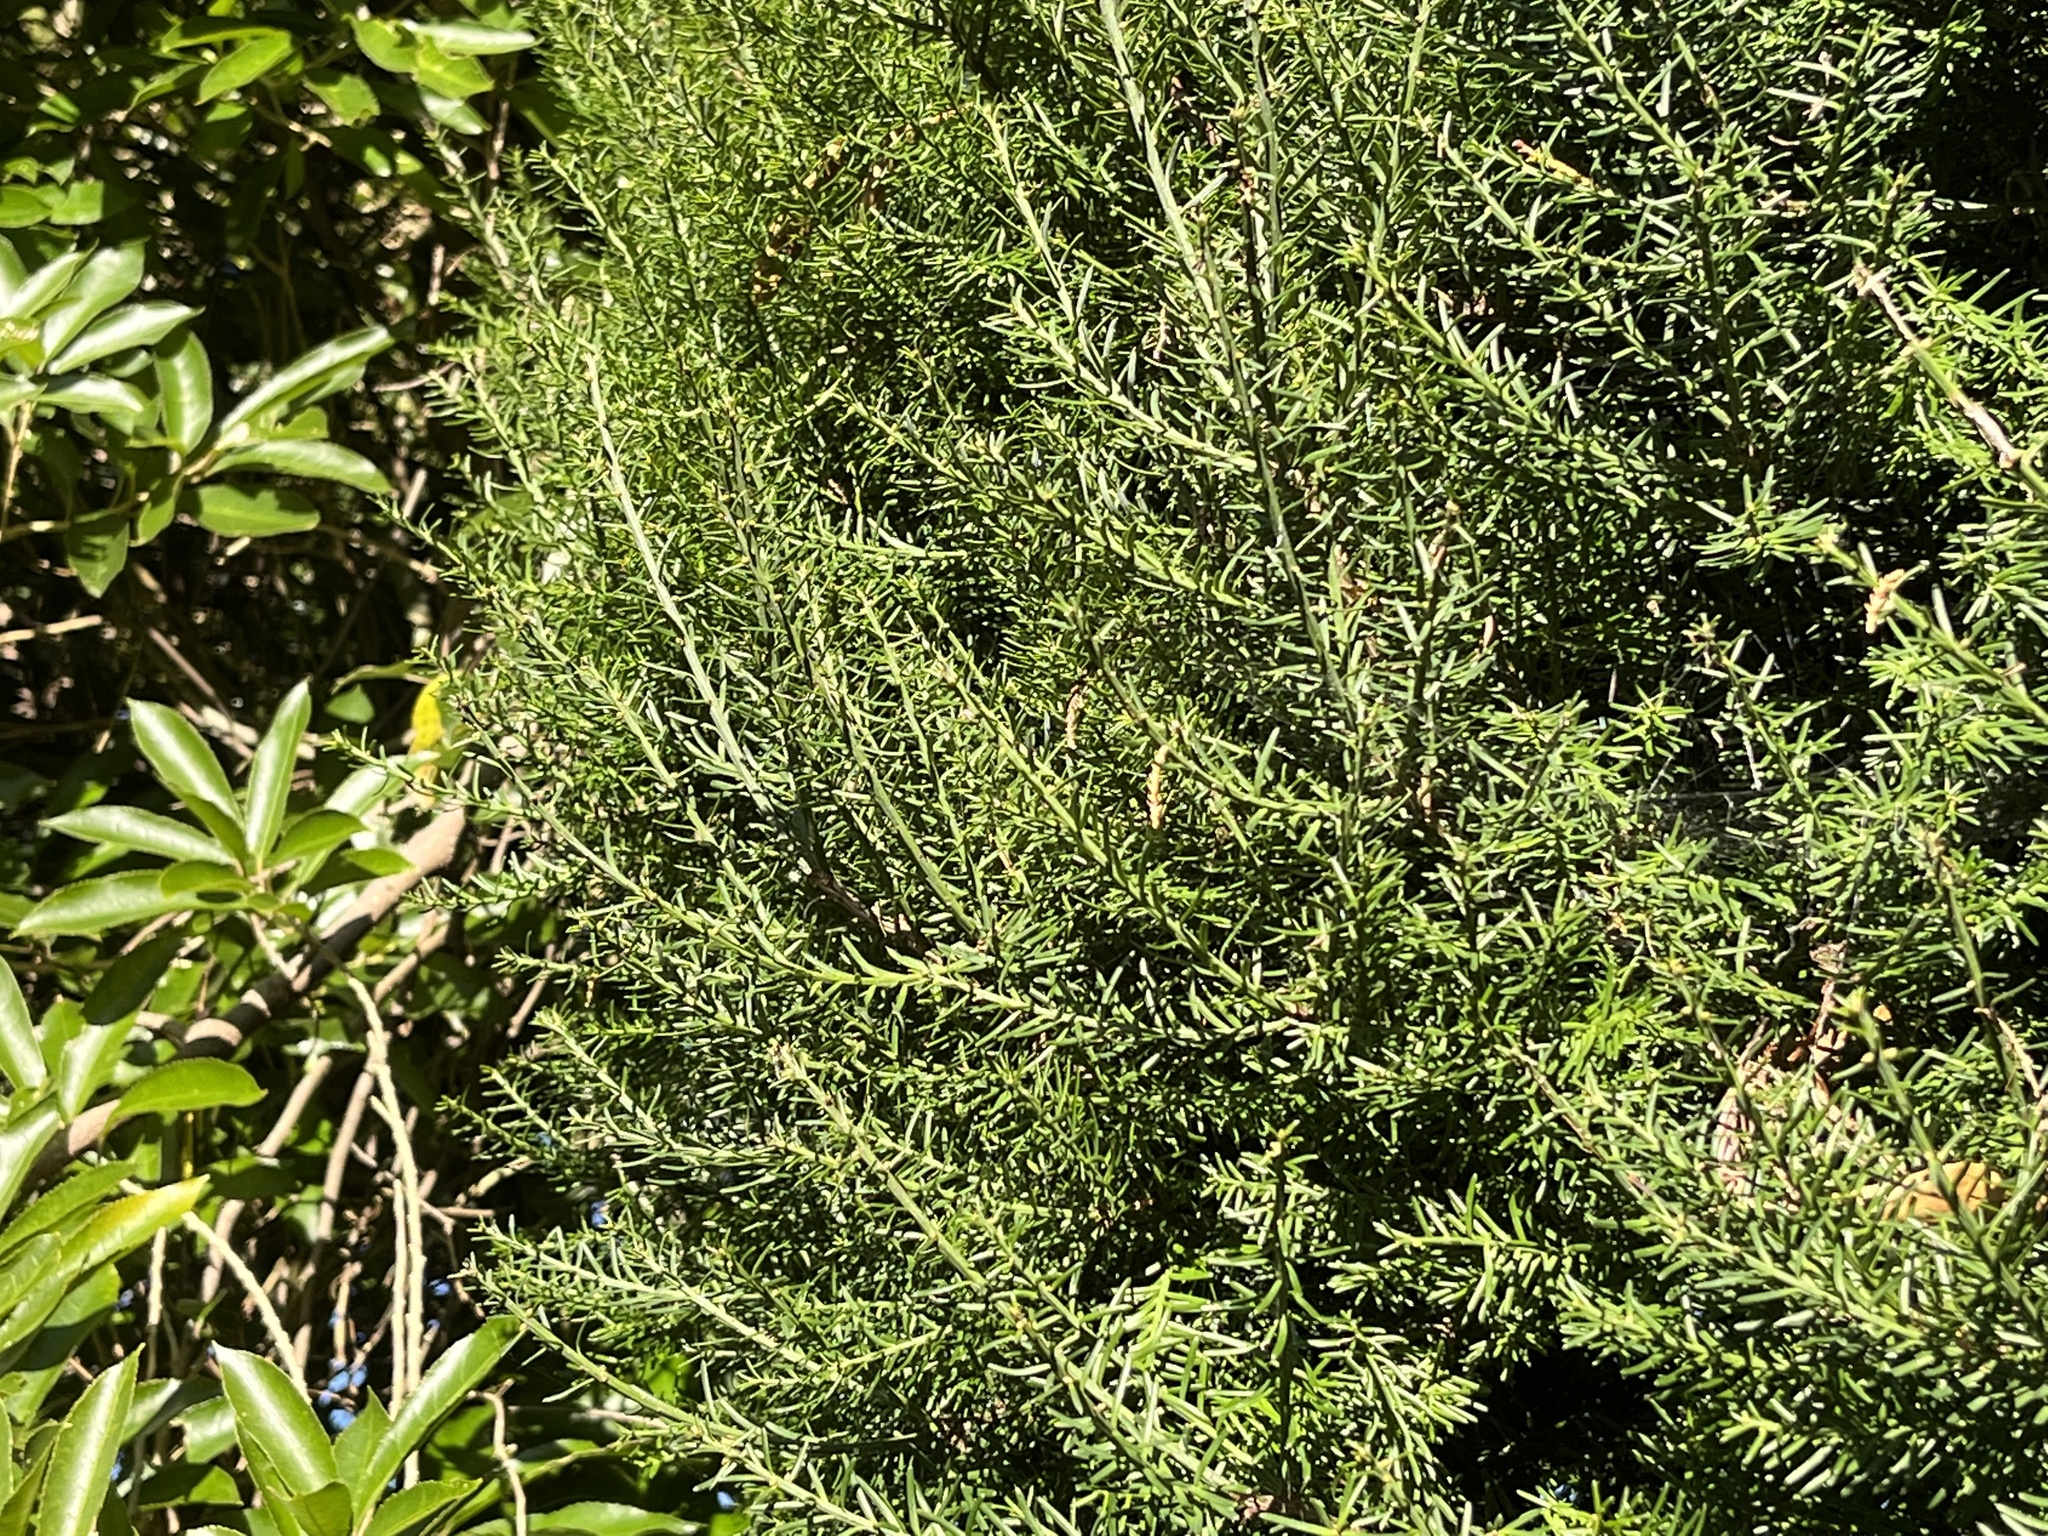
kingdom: Plantae
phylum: Tracheophyta
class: Pinopsida
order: Pinales
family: Podocarpaceae
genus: Prumnopitys
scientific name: Prumnopitys taxifolia
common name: Matai
